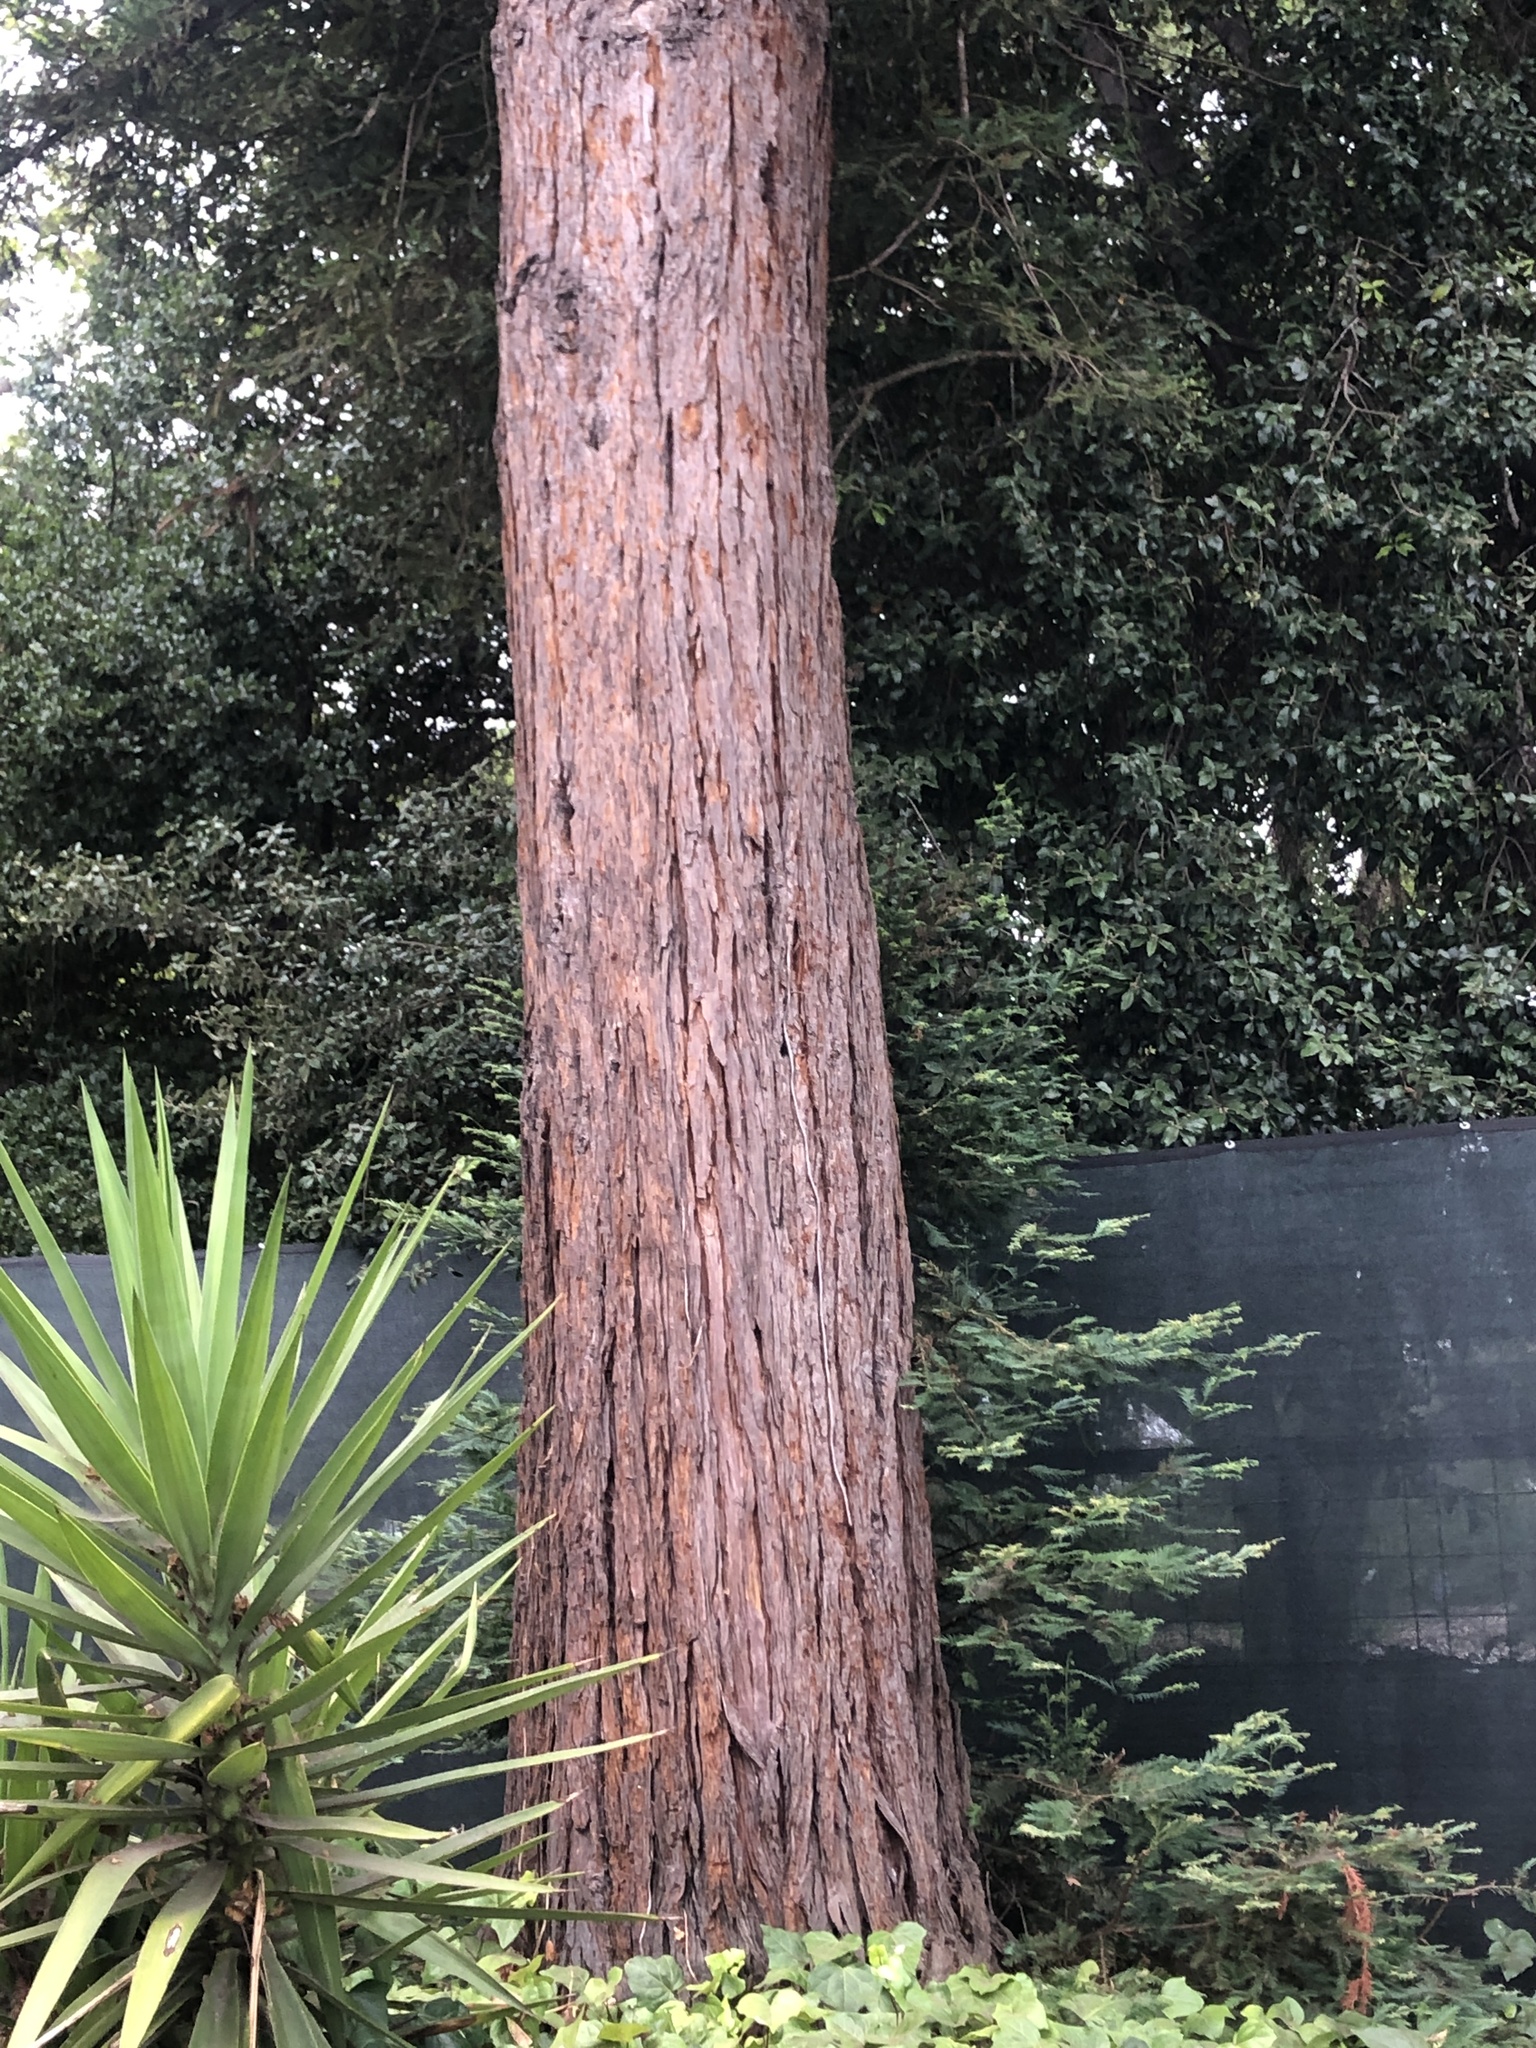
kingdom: Plantae
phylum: Tracheophyta
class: Pinopsida
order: Pinales
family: Cupressaceae
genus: Sequoia
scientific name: Sequoia sempervirens
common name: Coast redwood
